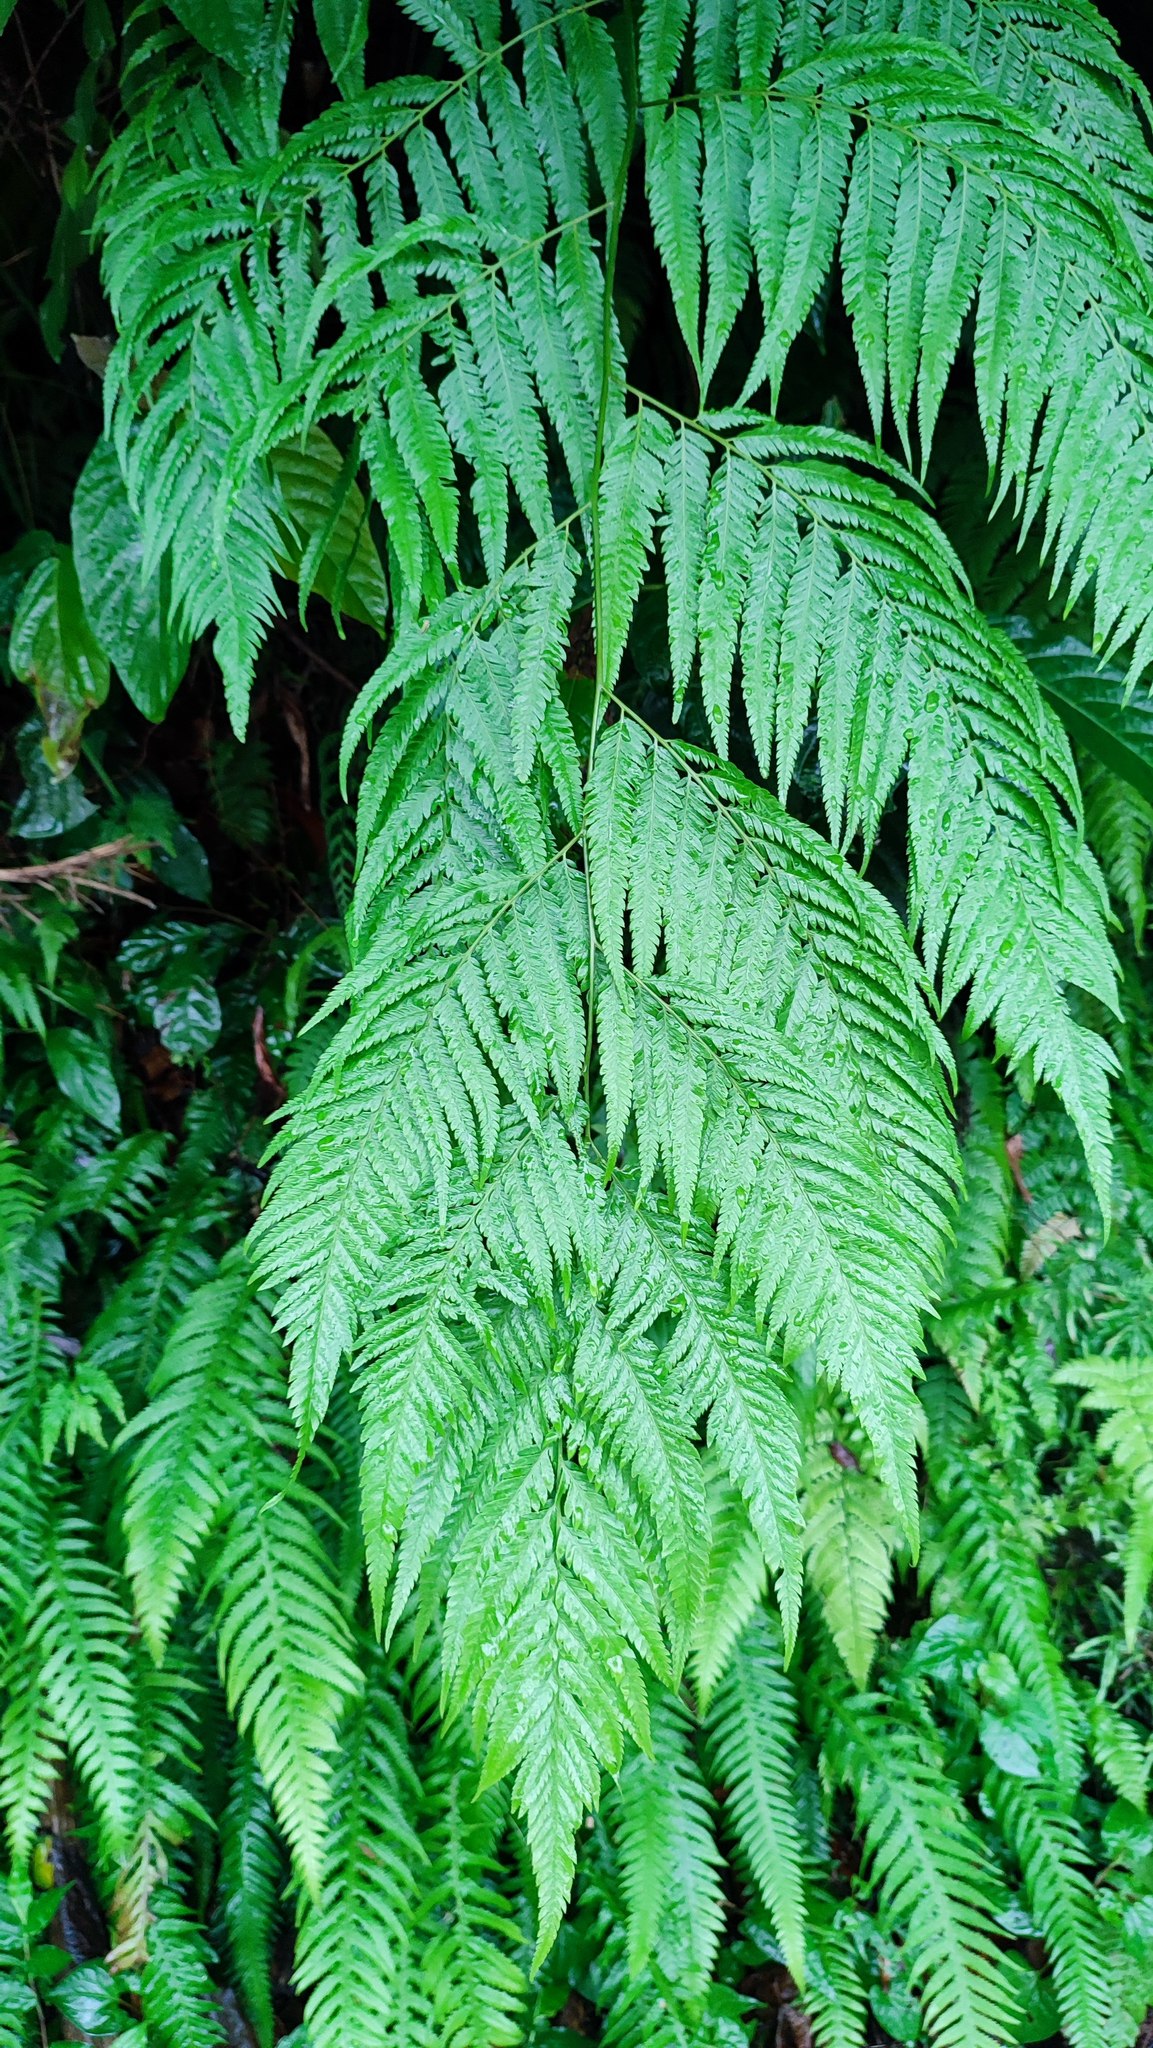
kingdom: Plantae
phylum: Tracheophyta
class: Polypodiopsida
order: Cyatheales
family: Cibotiaceae
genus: Cibotium
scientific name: Cibotium taiwanense
